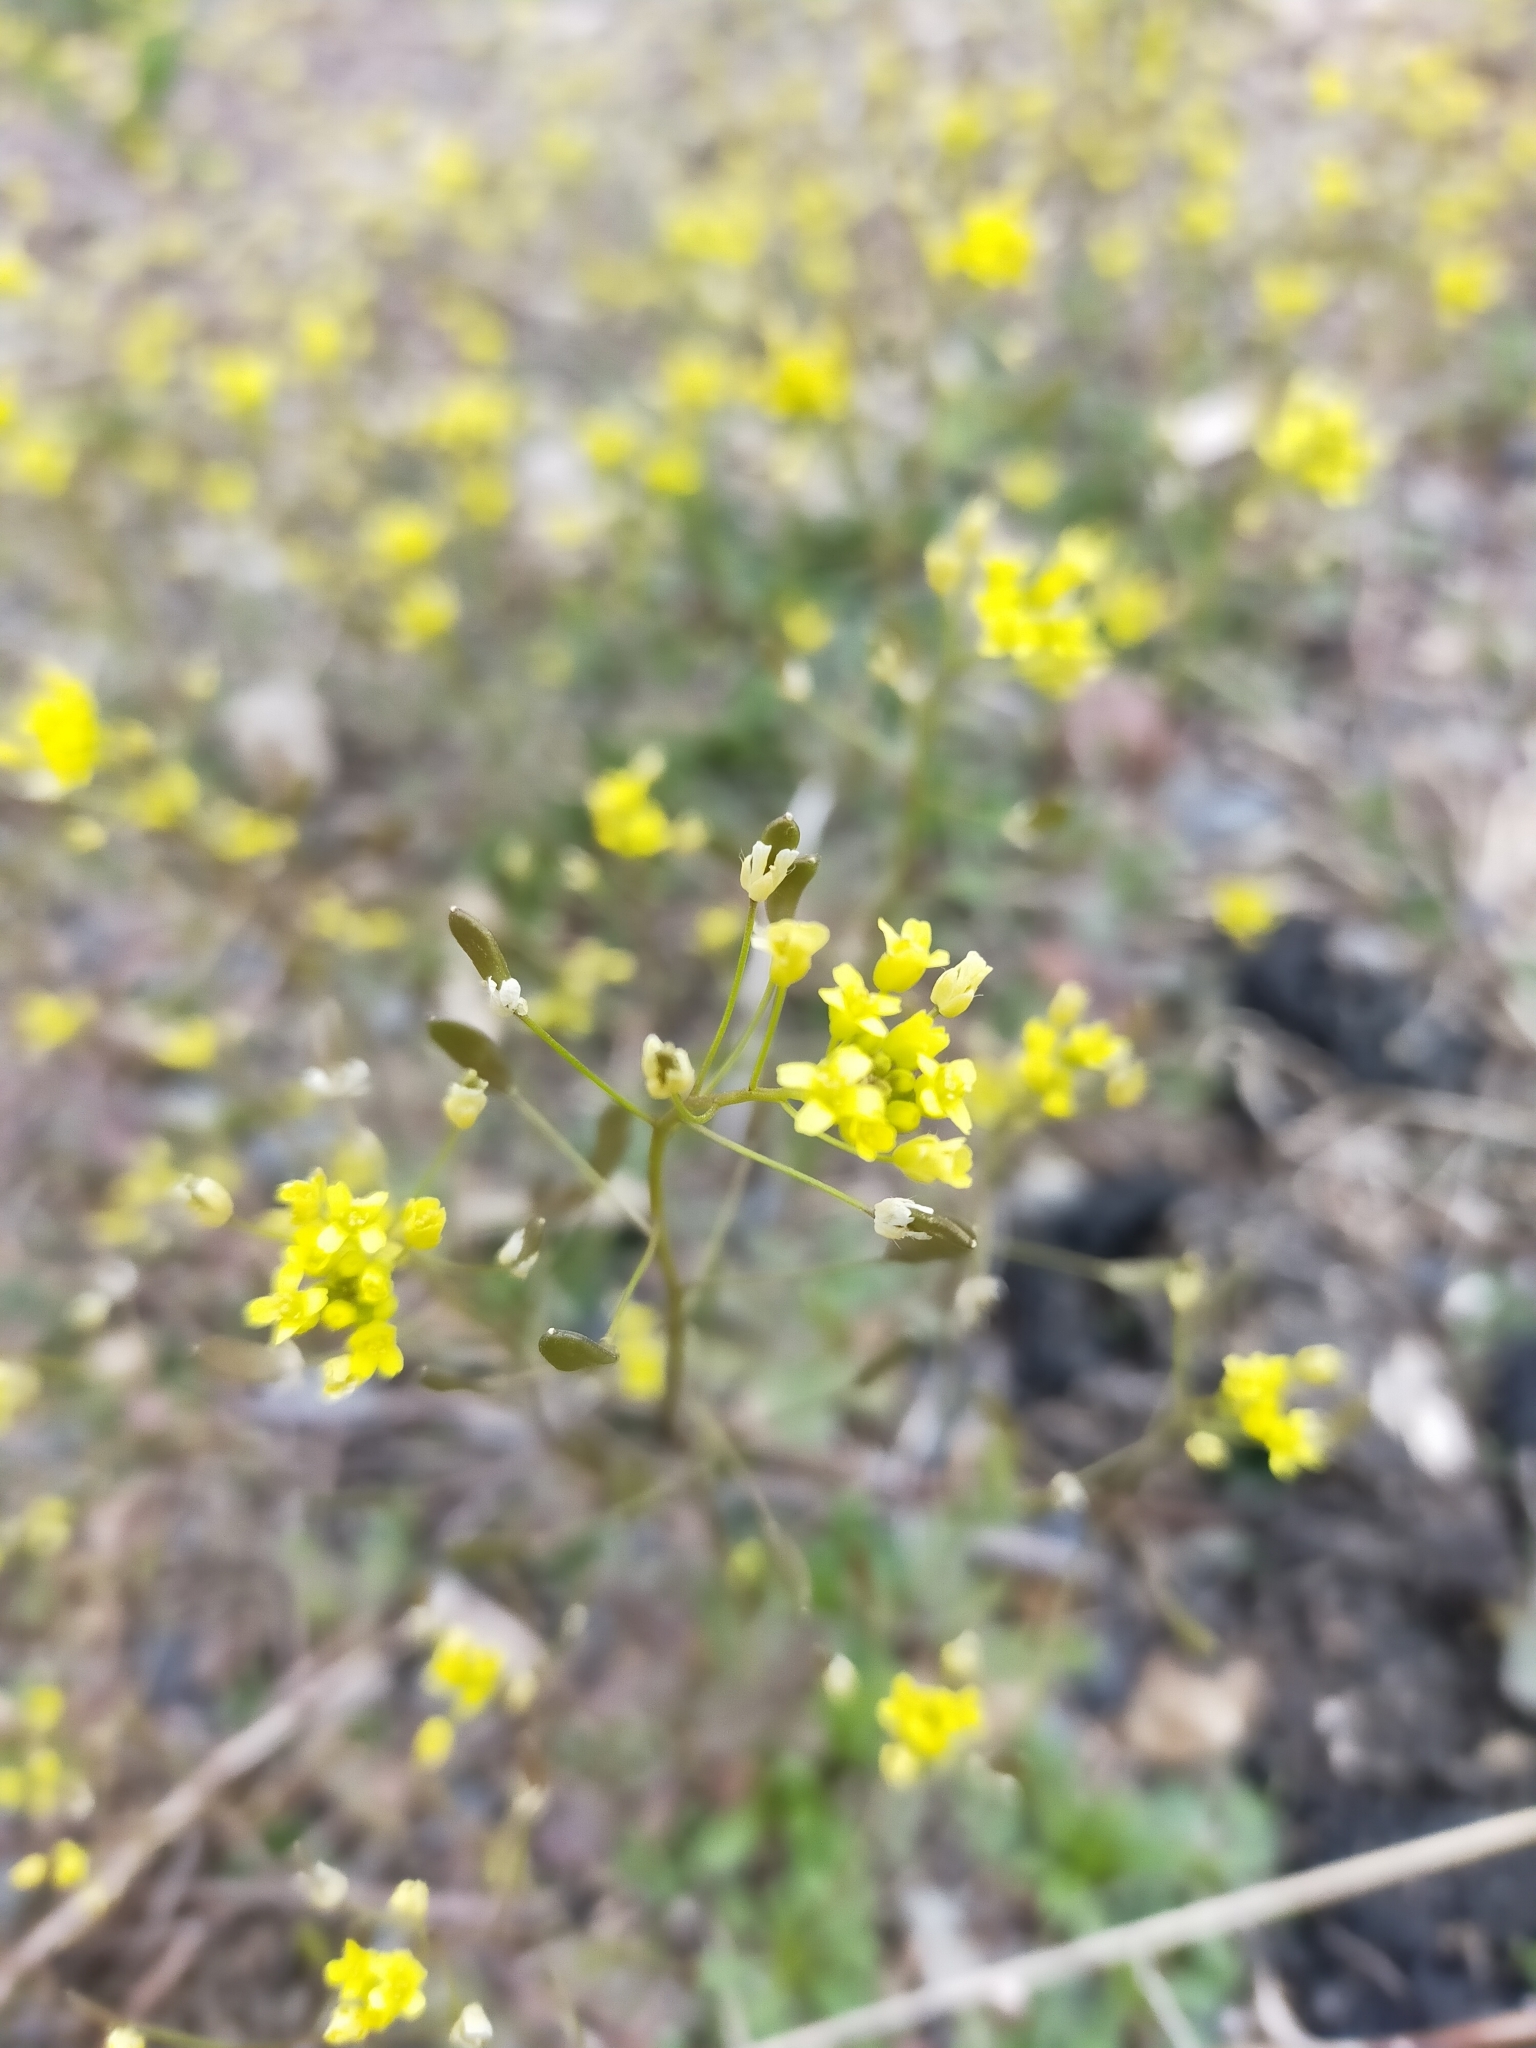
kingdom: Plantae
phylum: Tracheophyta
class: Magnoliopsida
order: Brassicales
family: Brassicaceae
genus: Draba
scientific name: Draba nemorosa
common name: Wood whitlow-grass
